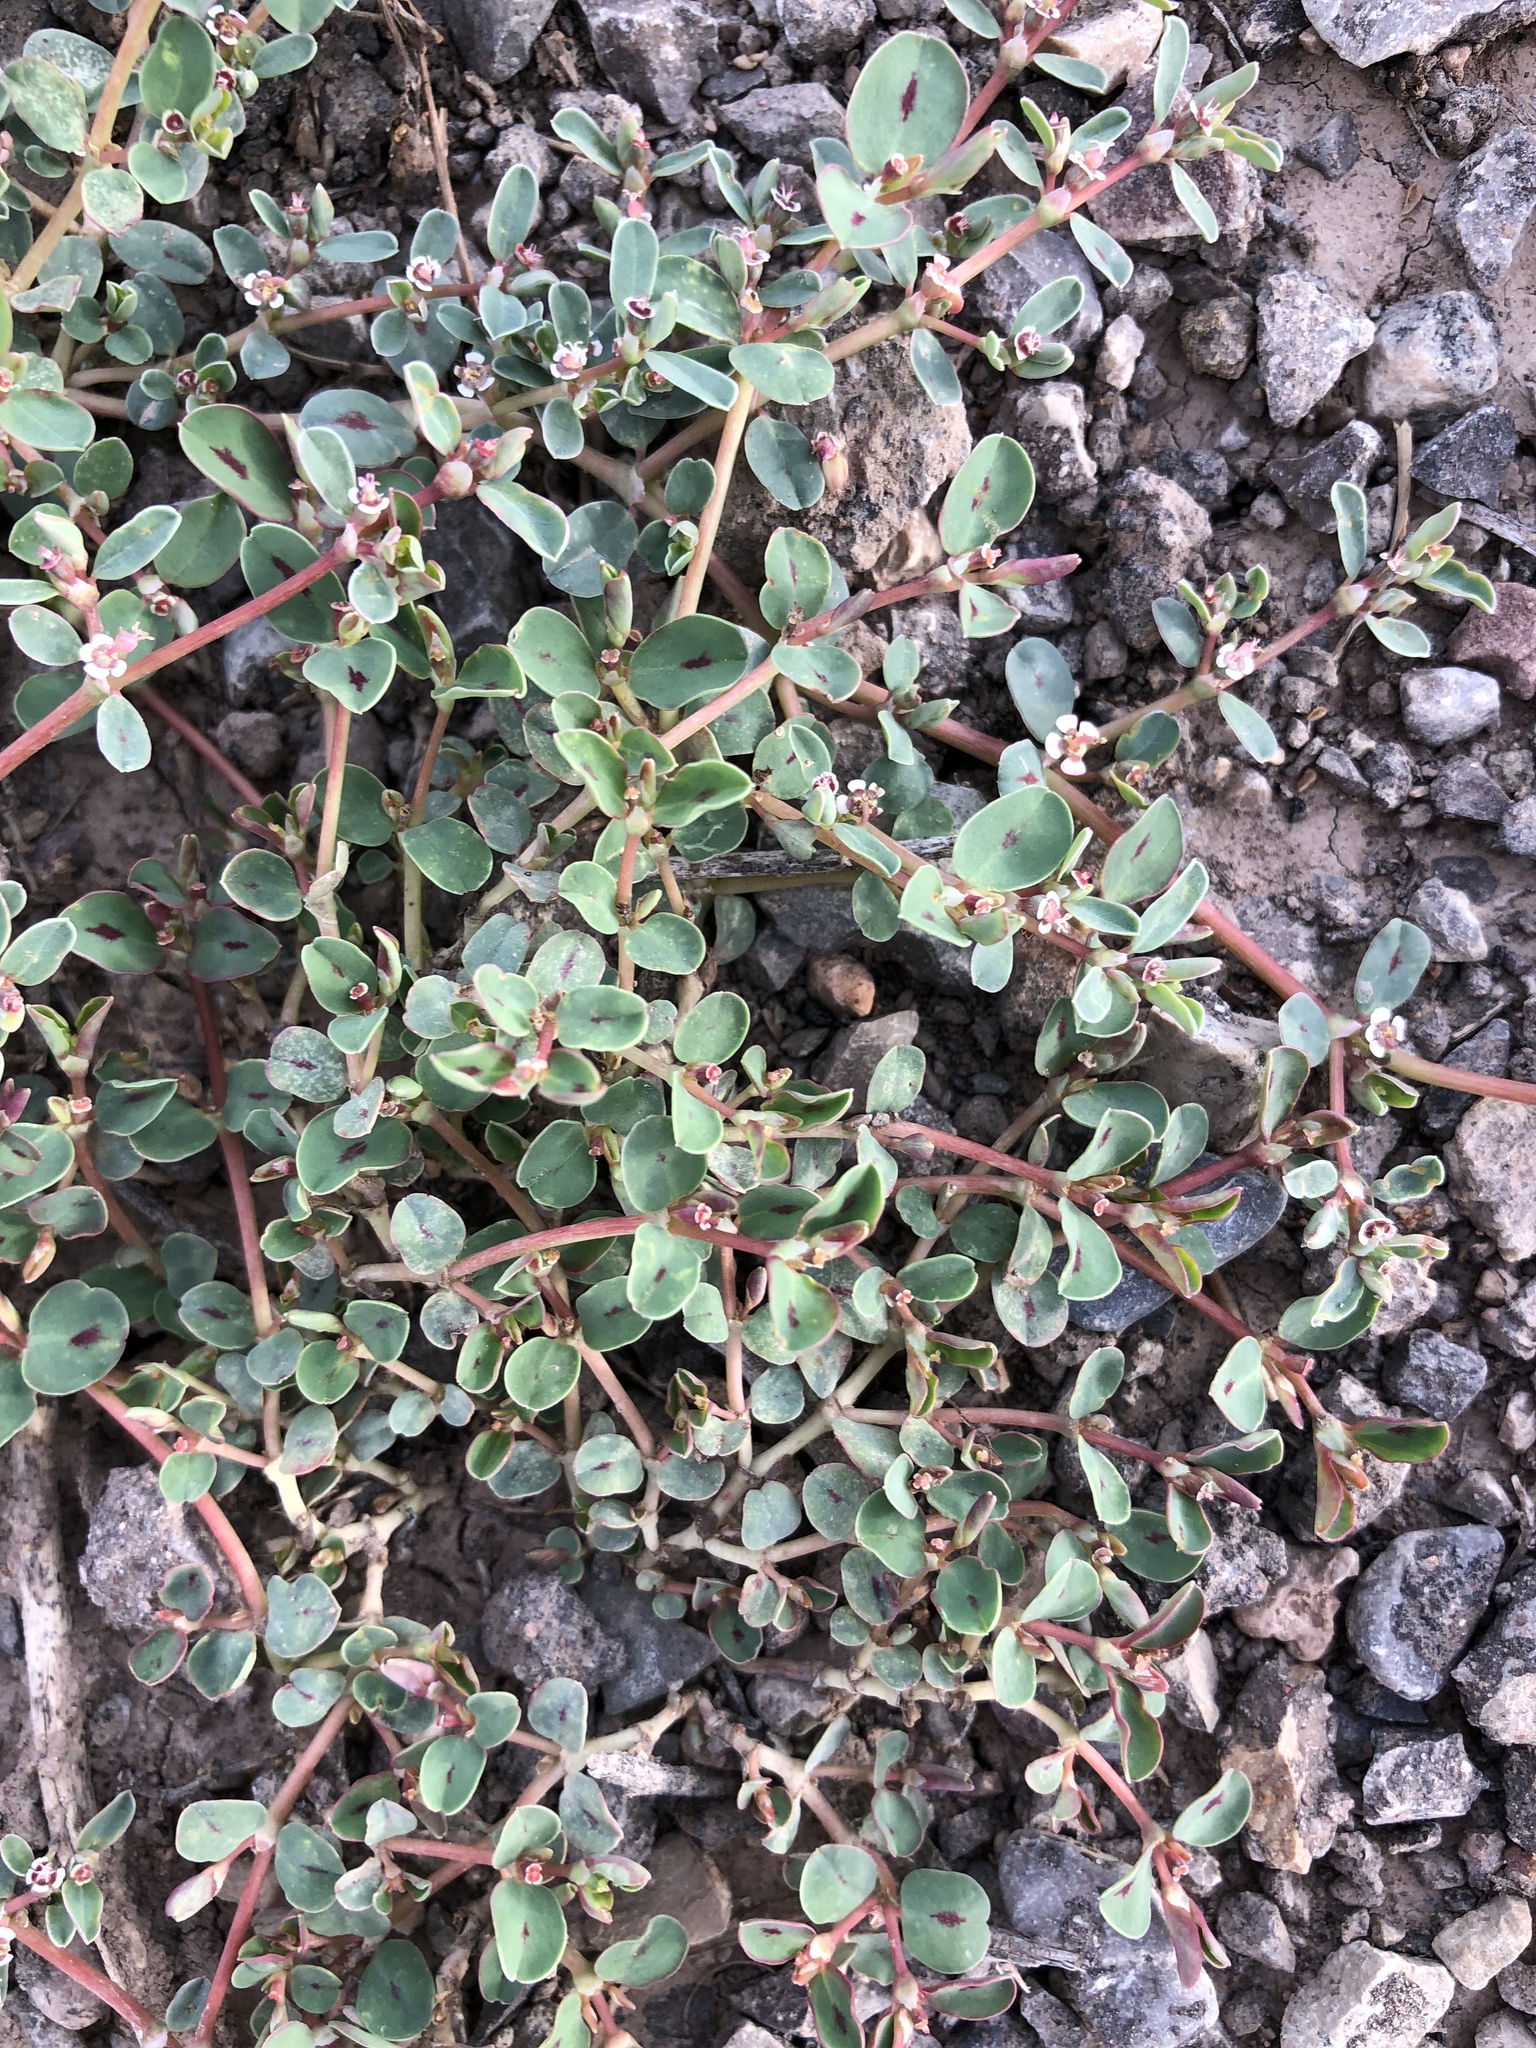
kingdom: Plantae
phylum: Tracheophyta
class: Magnoliopsida
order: Malpighiales
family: Euphorbiaceae
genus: Euphorbia
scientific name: Euphorbia albomarginata
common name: Whitemargin sandmat
